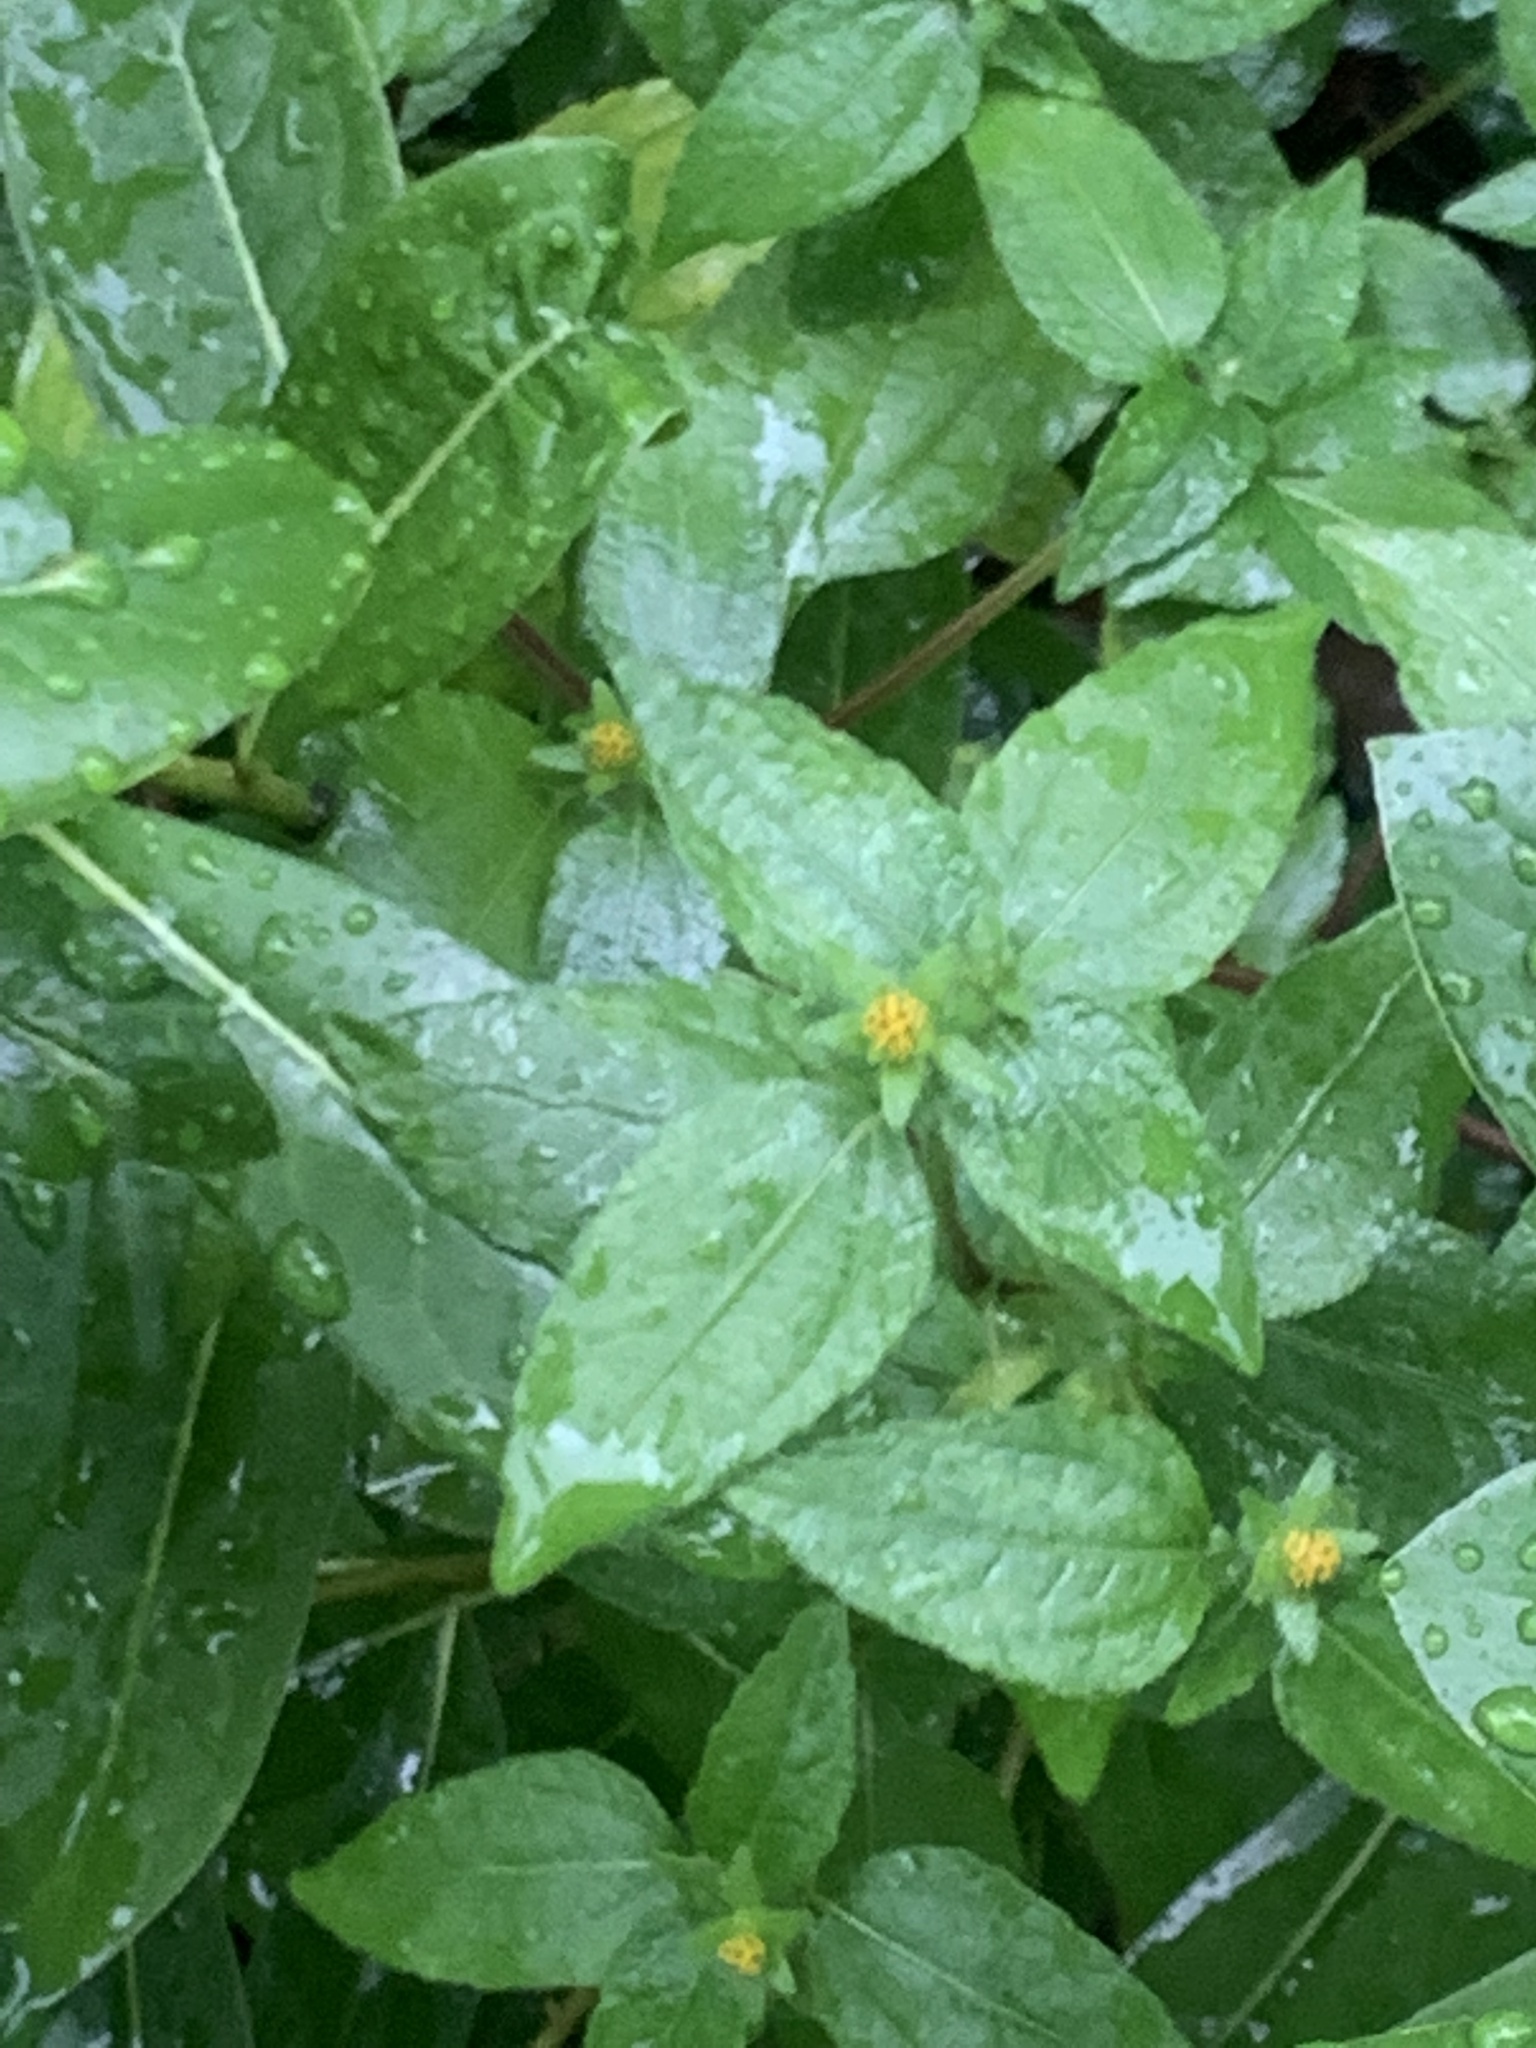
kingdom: Plantae
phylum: Tracheophyta
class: Magnoliopsida
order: Asterales
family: Asteraceae
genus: Eleutheranthera
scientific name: Eleutheranthera ruderalis
